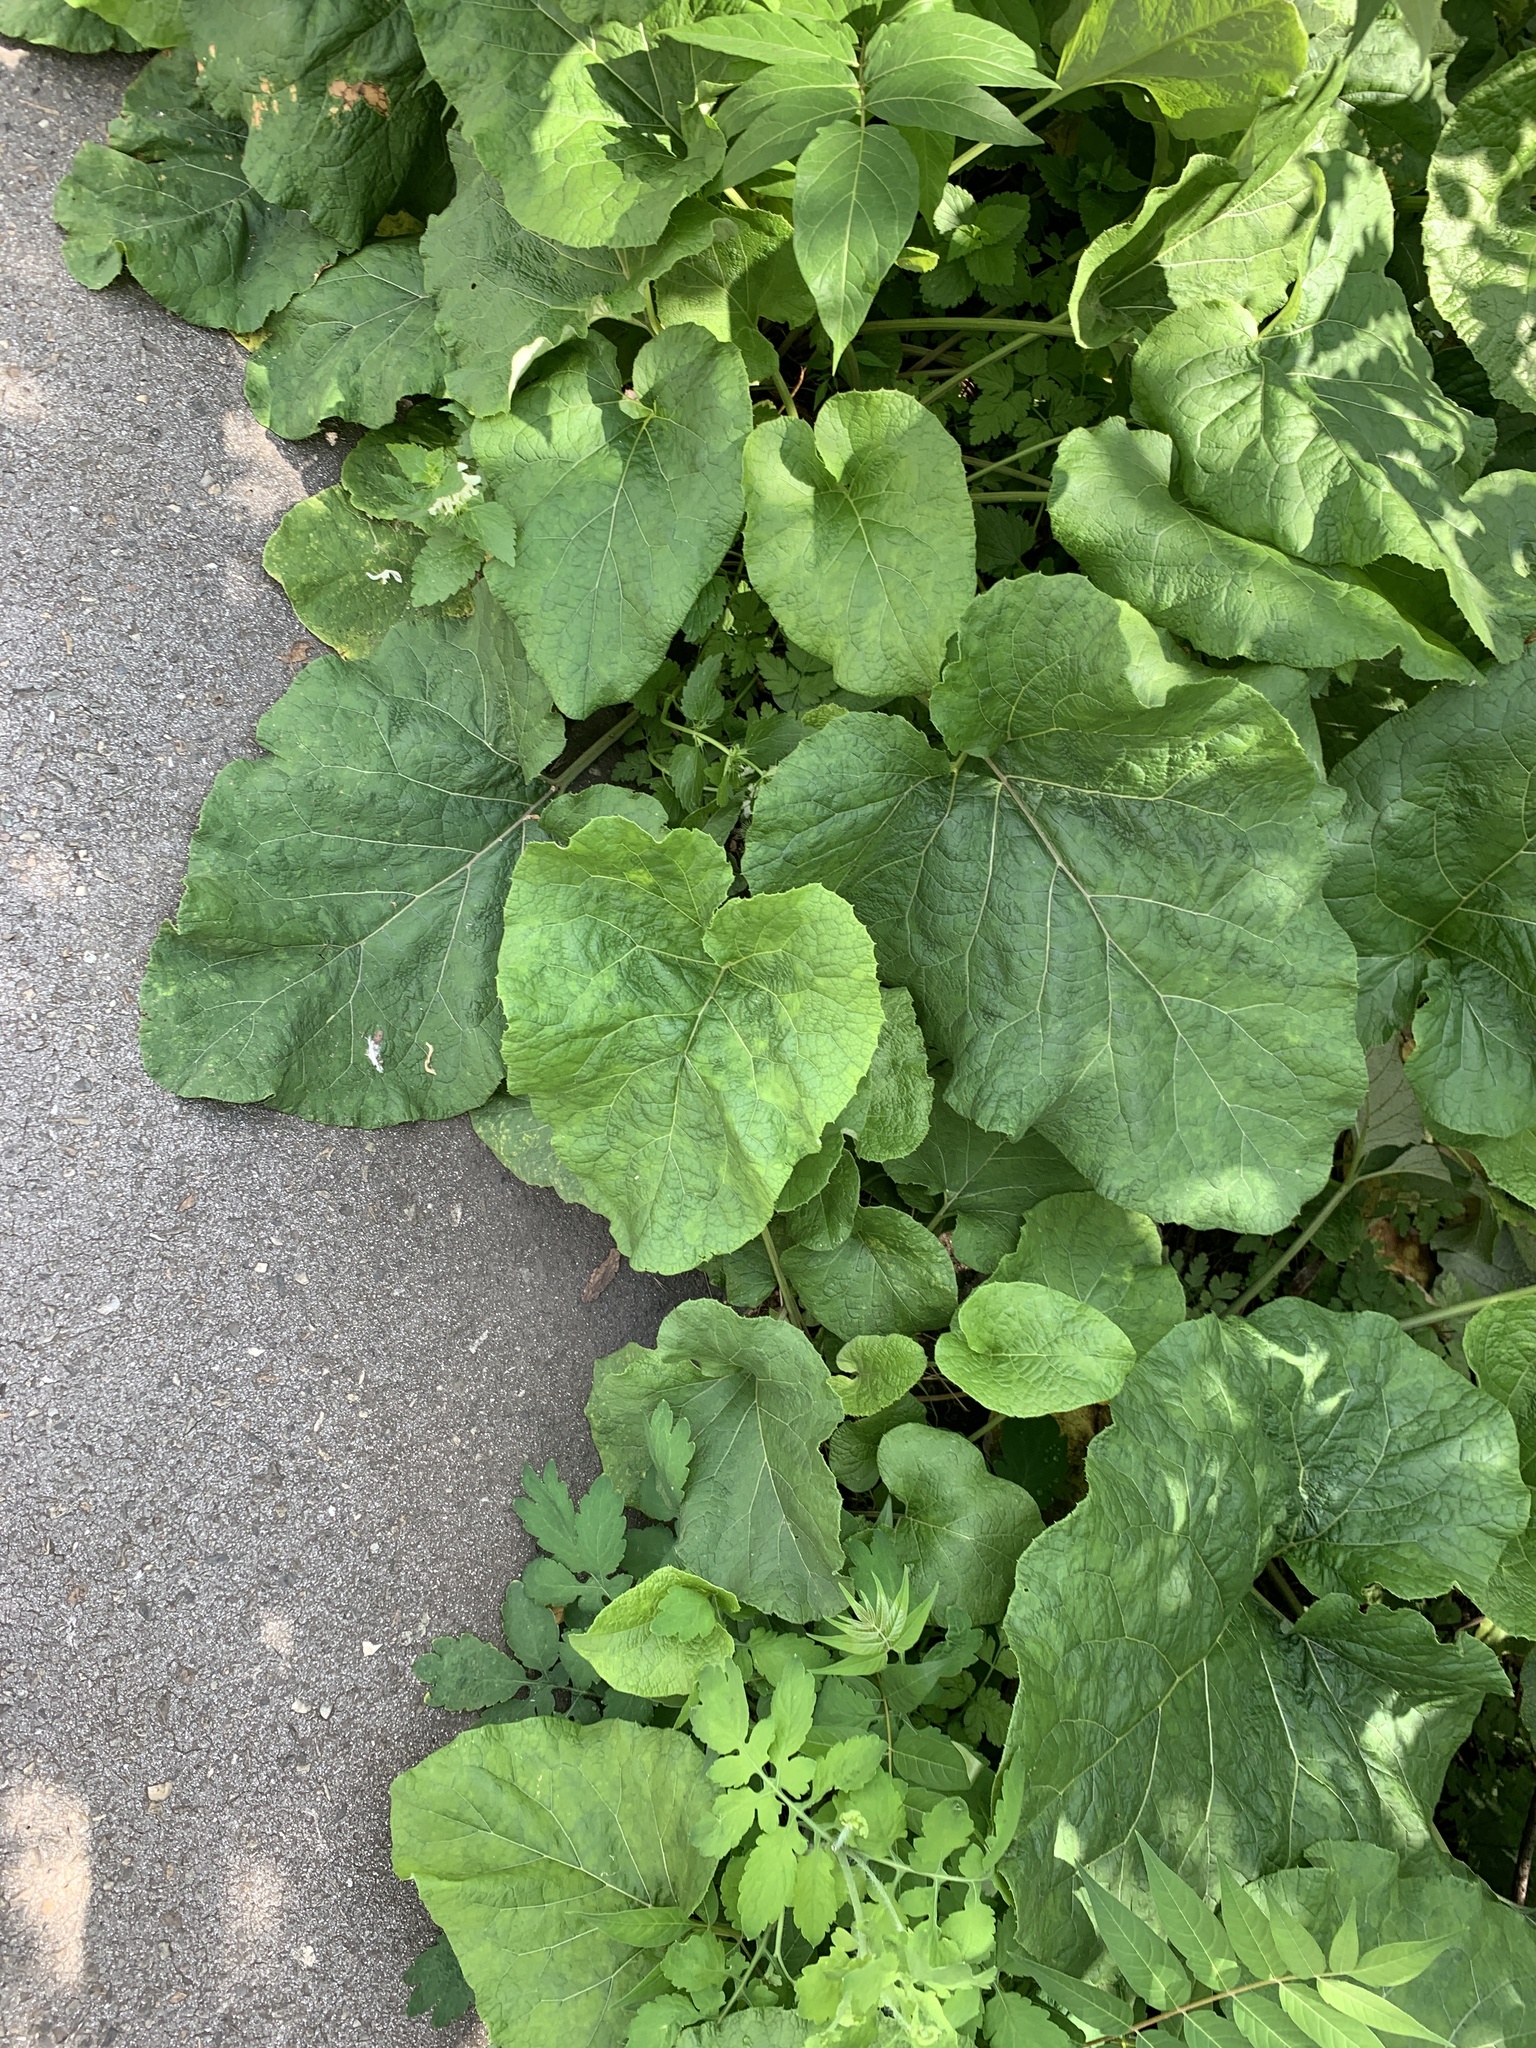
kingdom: Plantae
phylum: Tracheophyta
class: Magnoliopsida
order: Asterales
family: Asteraceae
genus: Arctium
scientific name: Arctium
